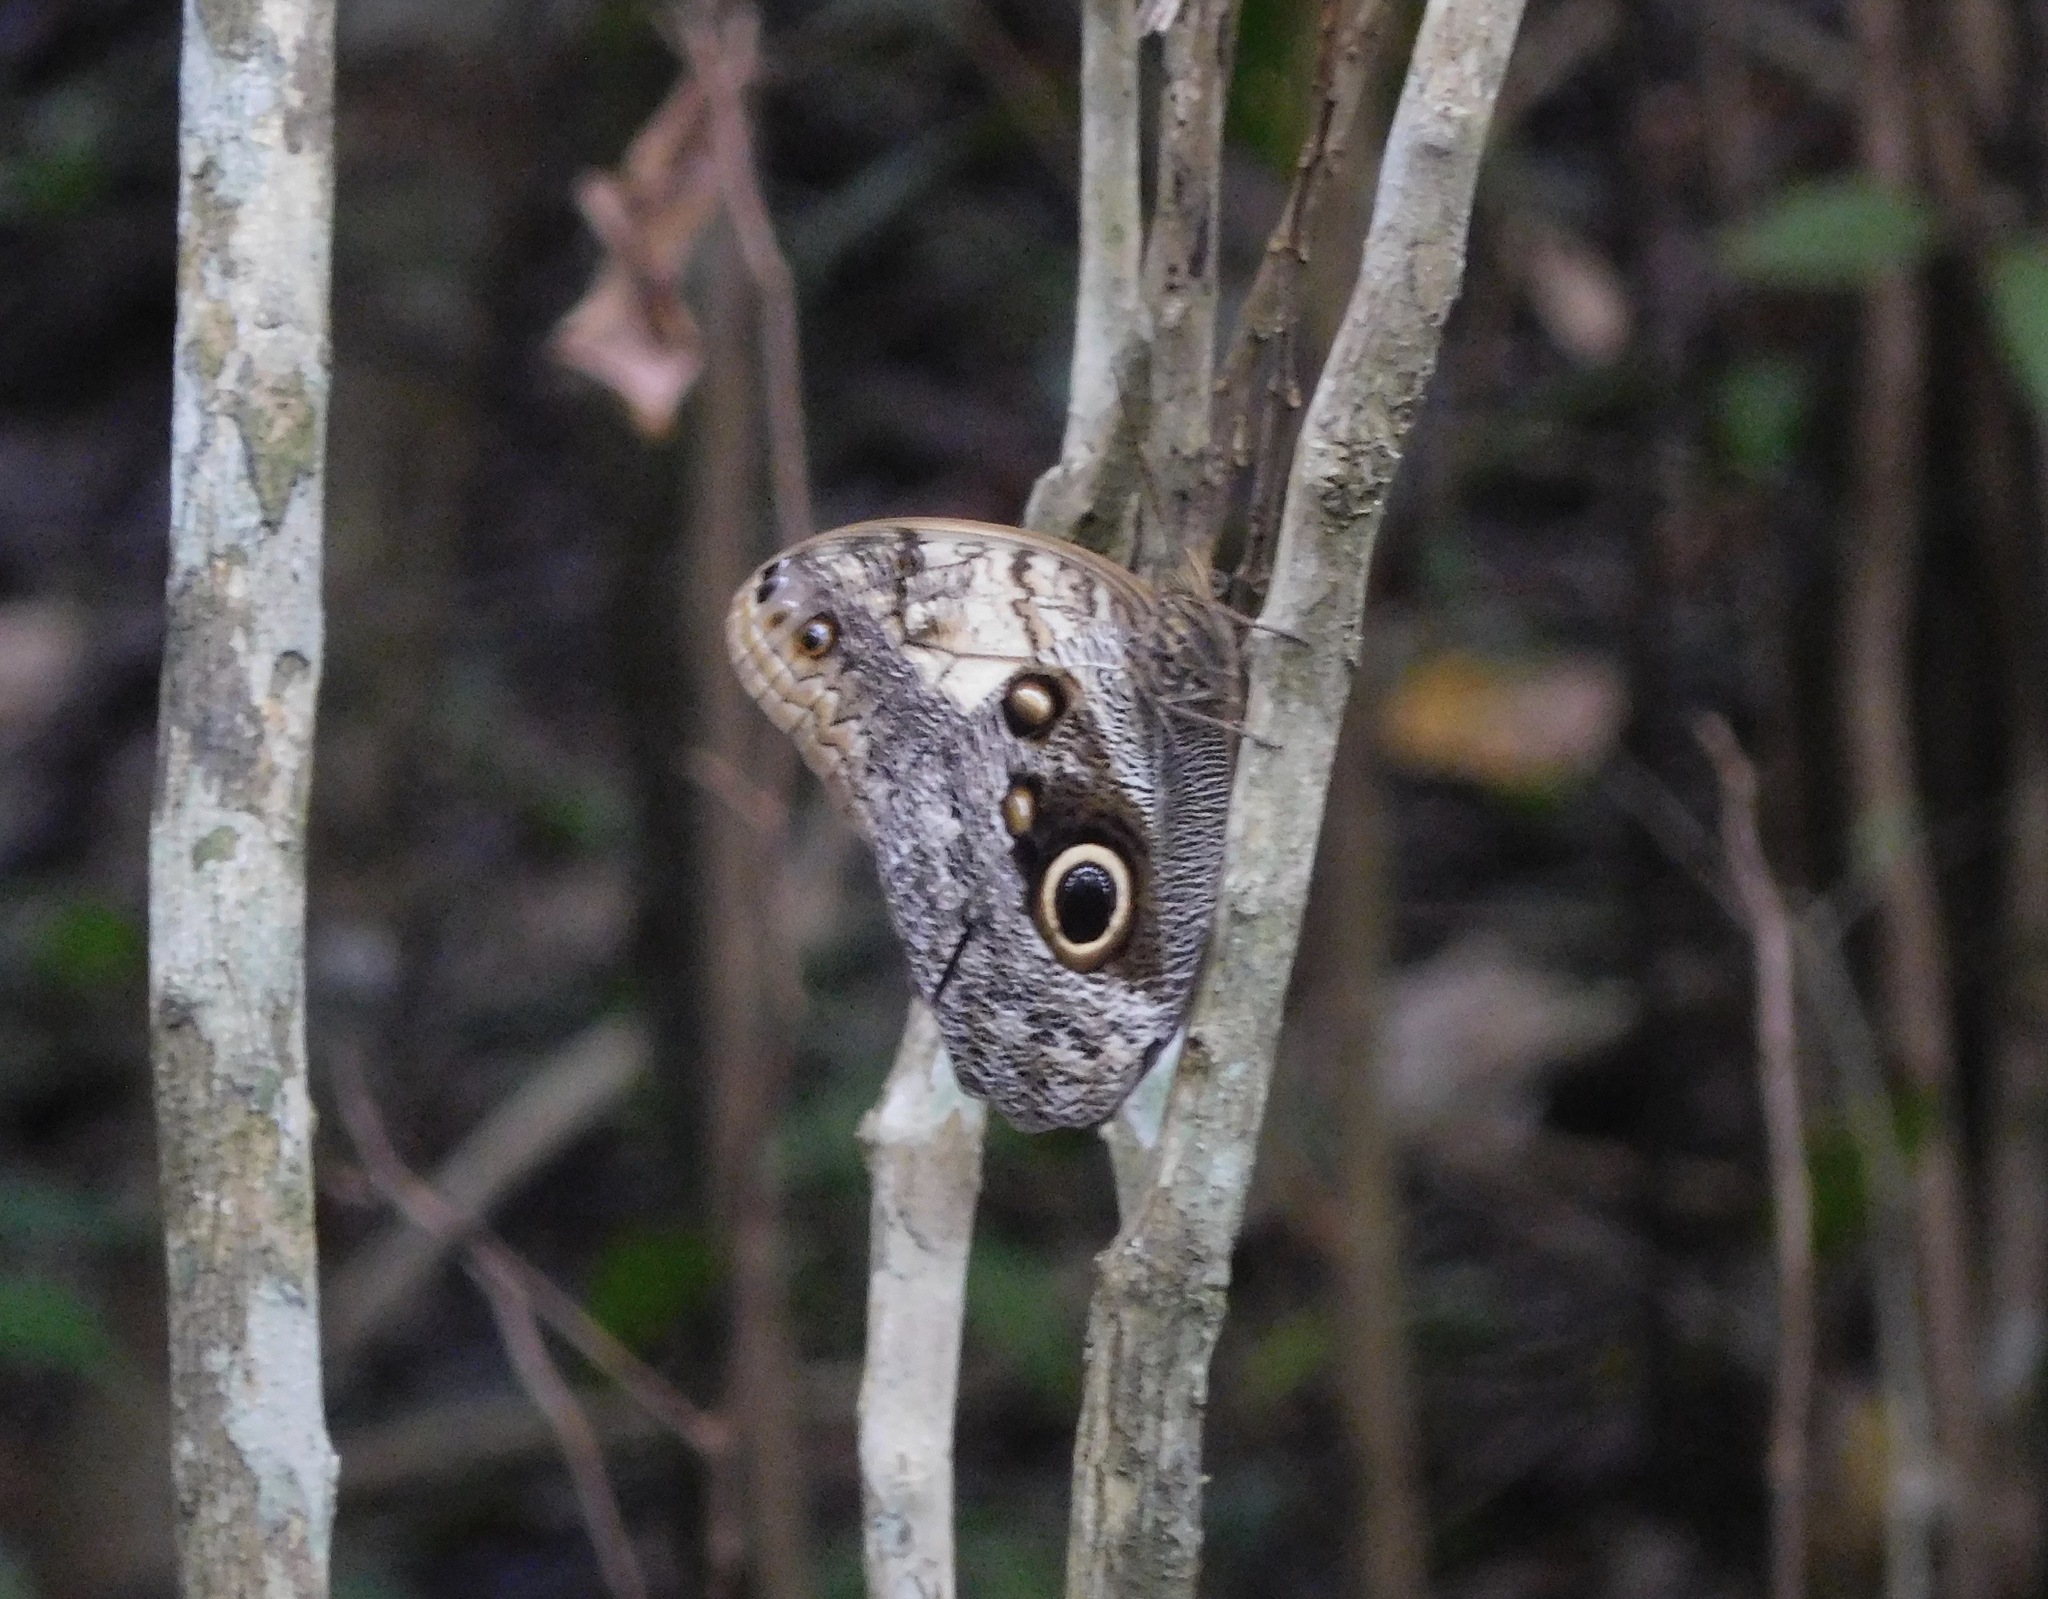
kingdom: Animalia
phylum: Arthropoda
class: Insecta
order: Lepidoptera
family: Nymphalidae
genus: Caligo
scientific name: Caligo telamonius
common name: Pale owl-butterfly
